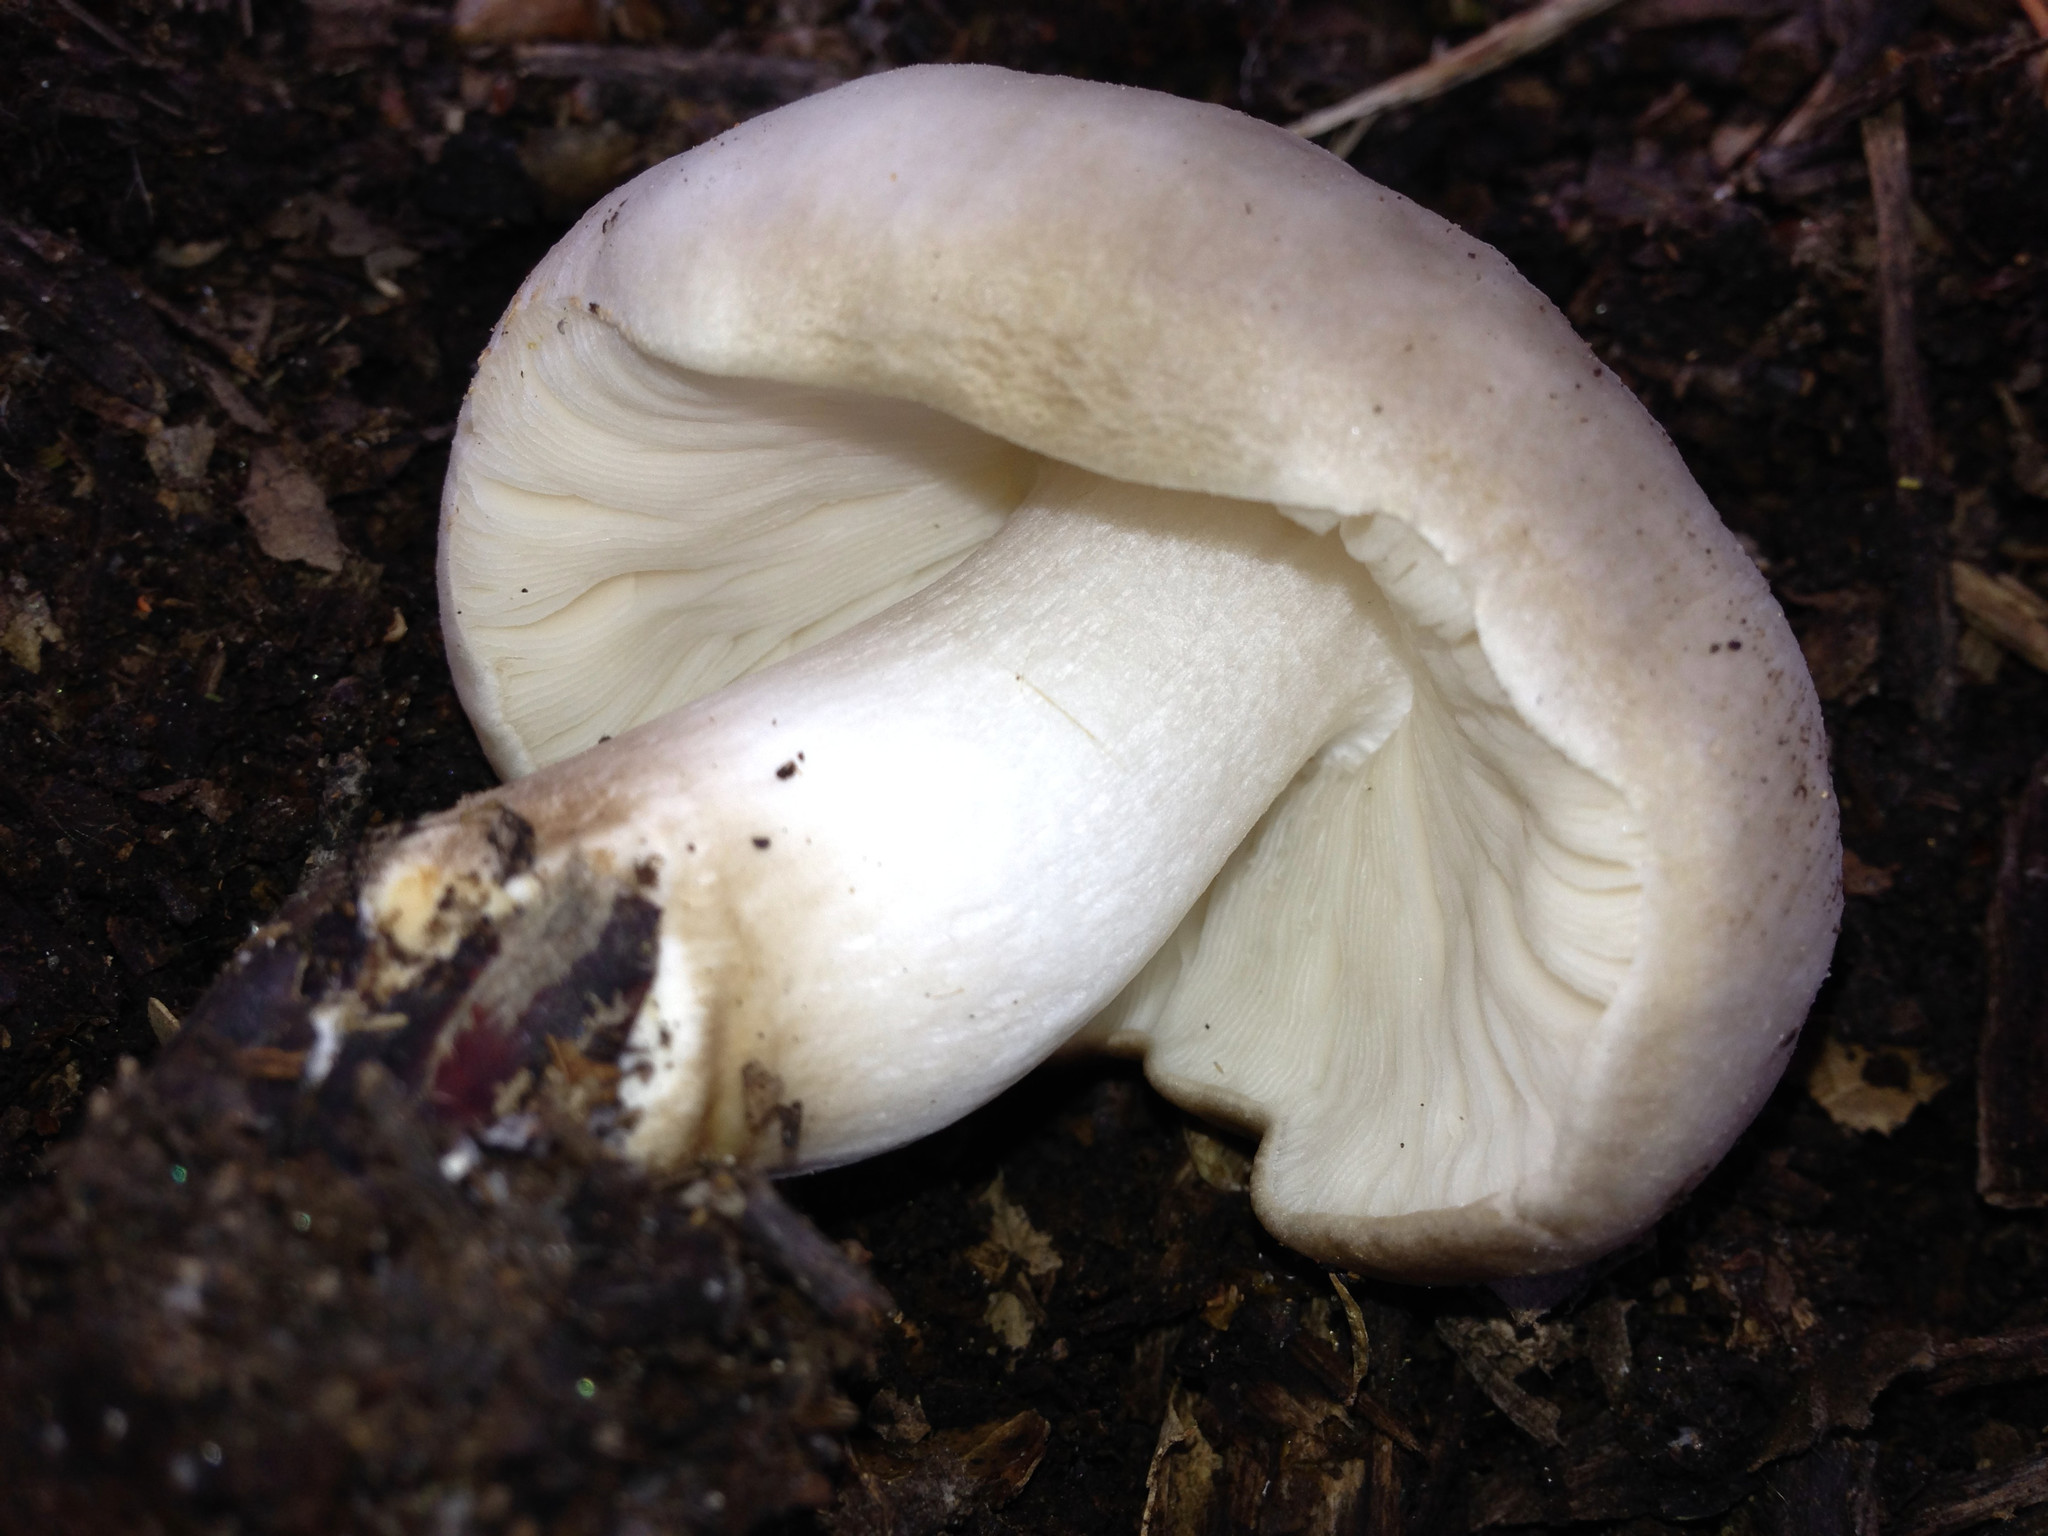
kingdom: Fungi
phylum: Basidiomycota
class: Agaricomycetes
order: Agaricales
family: Pluteaceae
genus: Pluteus
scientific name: Pluteus petasatus
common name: Scaly shield
